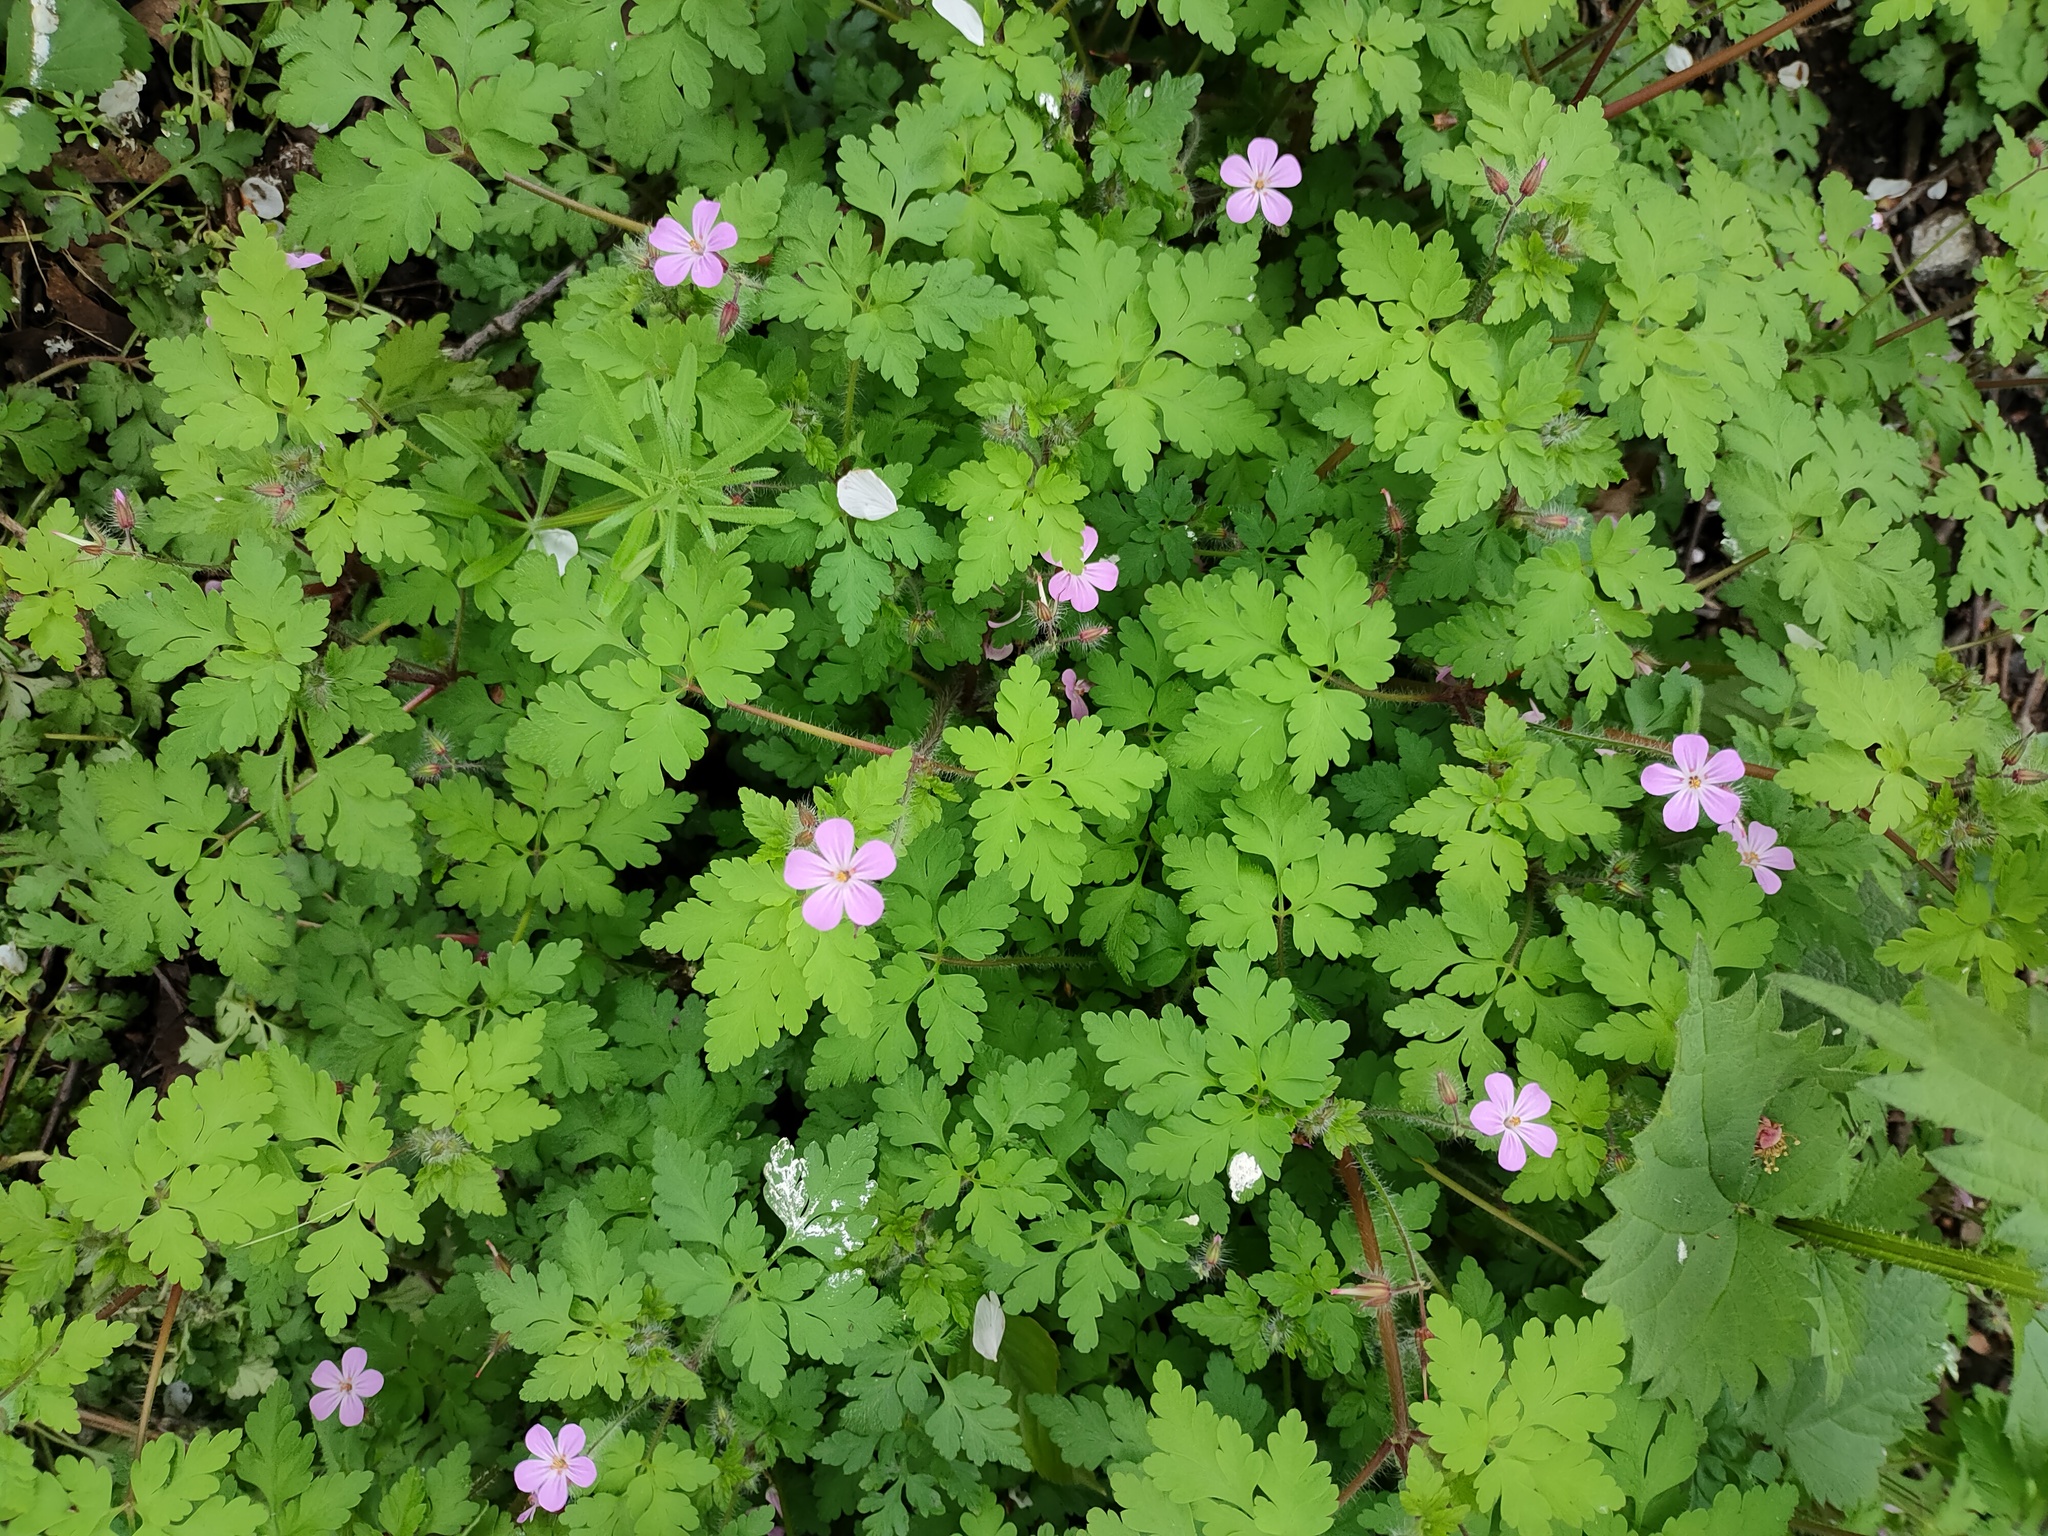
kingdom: Plantae
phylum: Tracheophyta
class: Magnoliopsida
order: Geraniales
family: Geraniaceae
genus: Geranium
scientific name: Geranium robertianum
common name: Herb-robert
